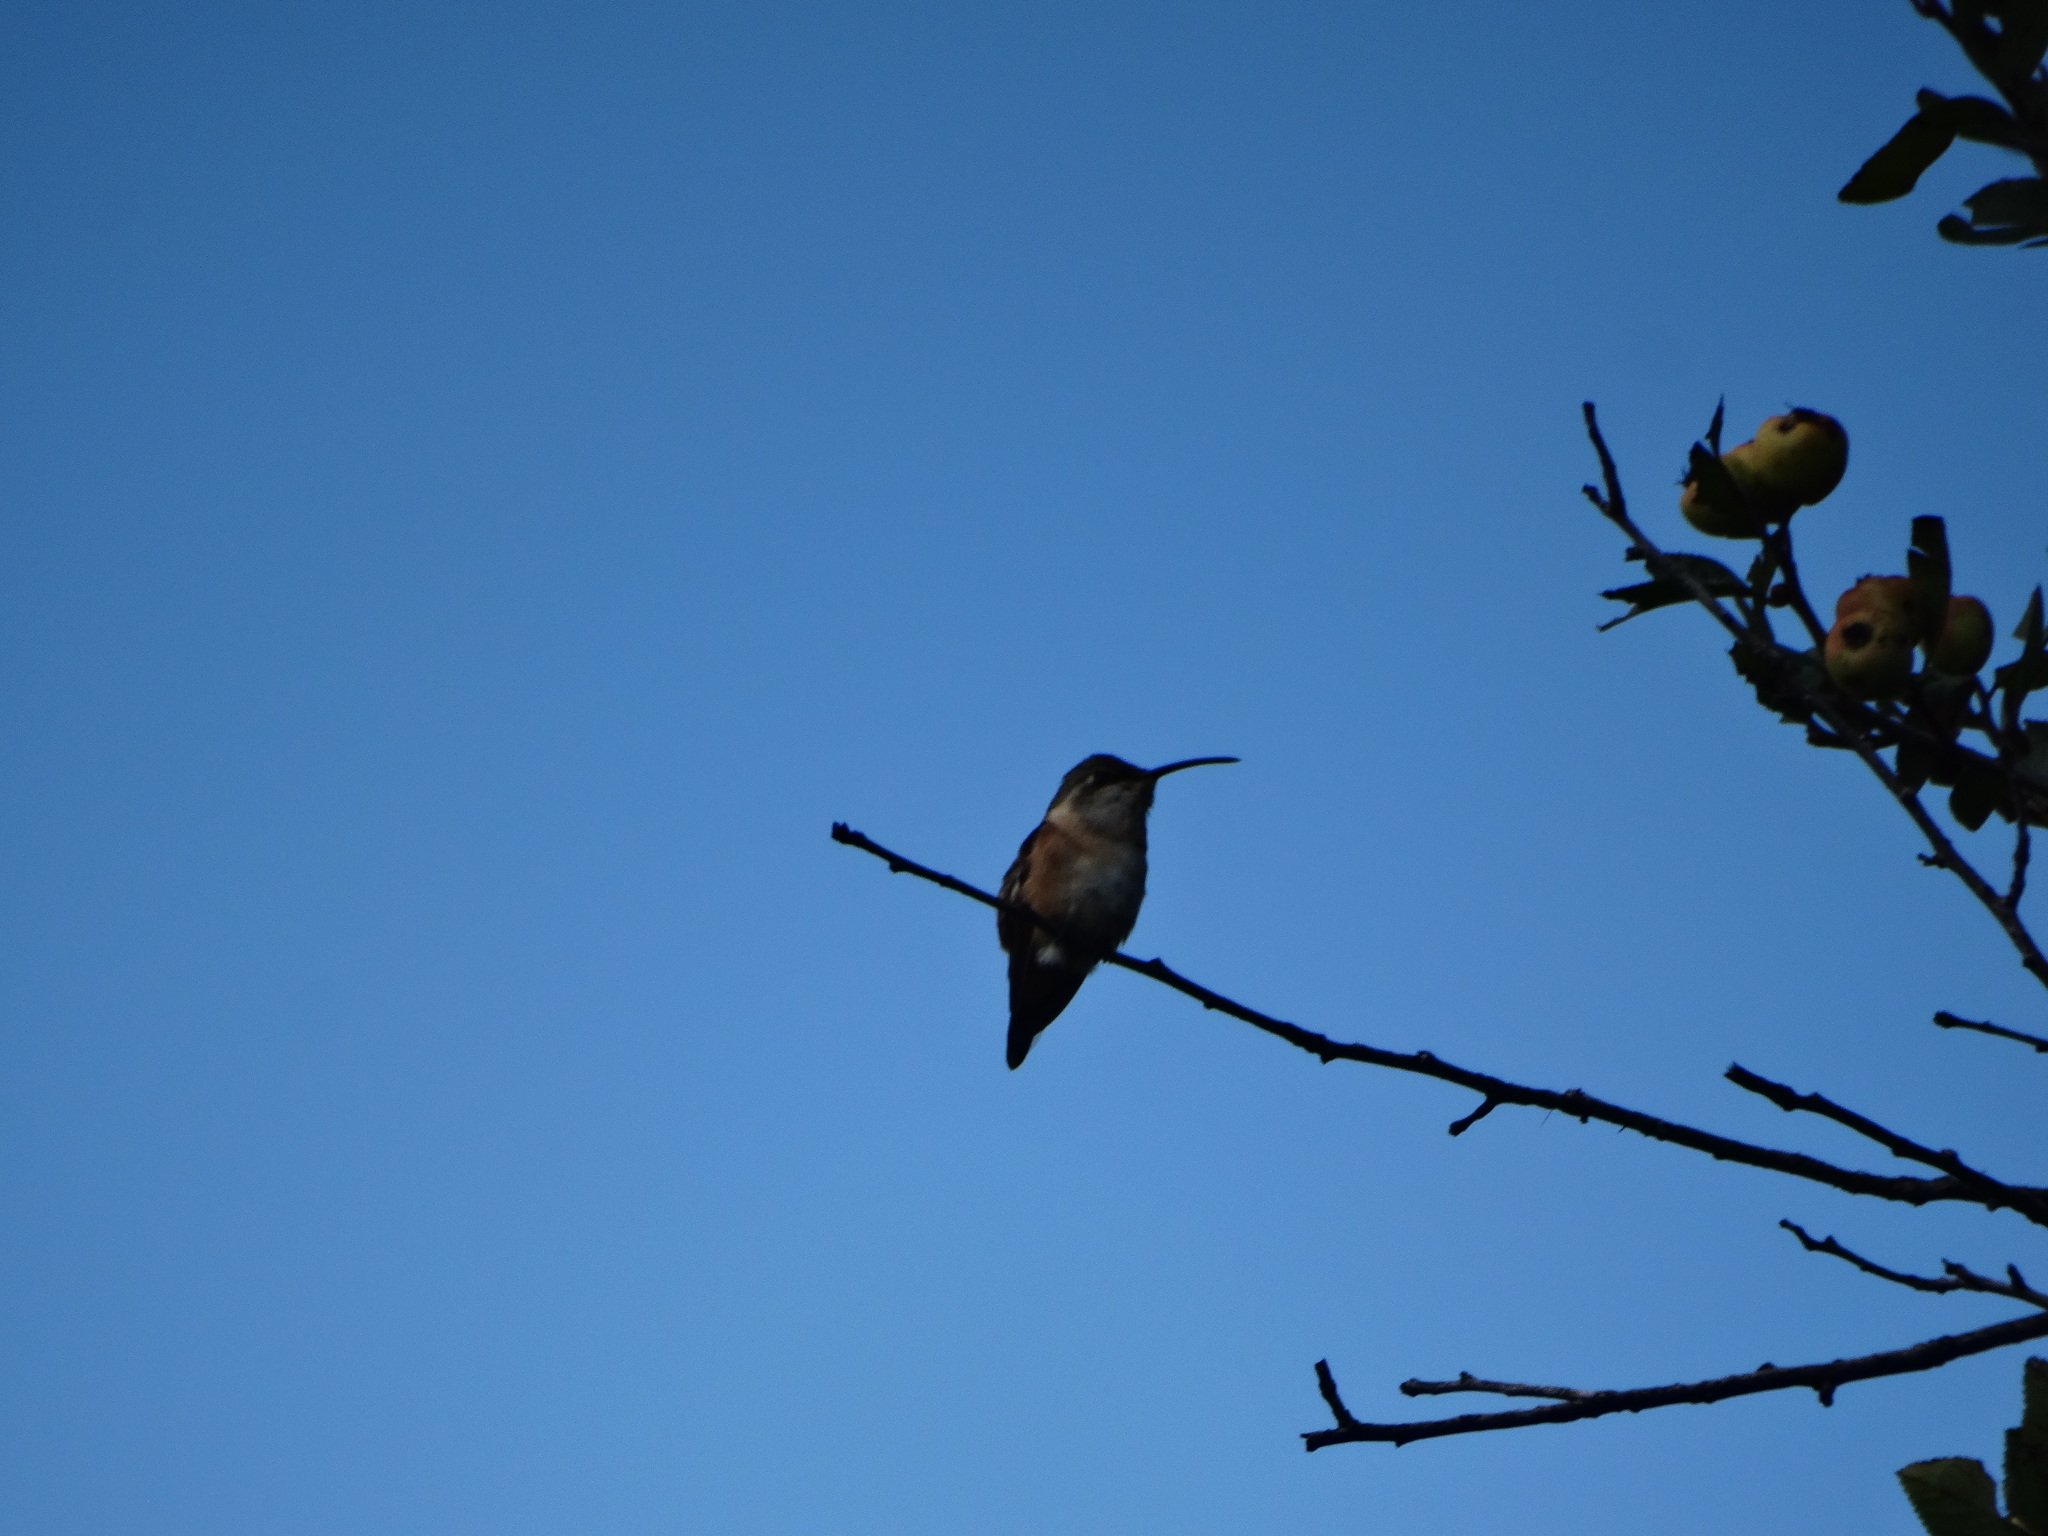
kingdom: Animalia
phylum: Chordata
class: Aves
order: Apodiformes
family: Trochilidae
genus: Calothorax
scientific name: Calothorax lucifer
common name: Lucifer sheartail
